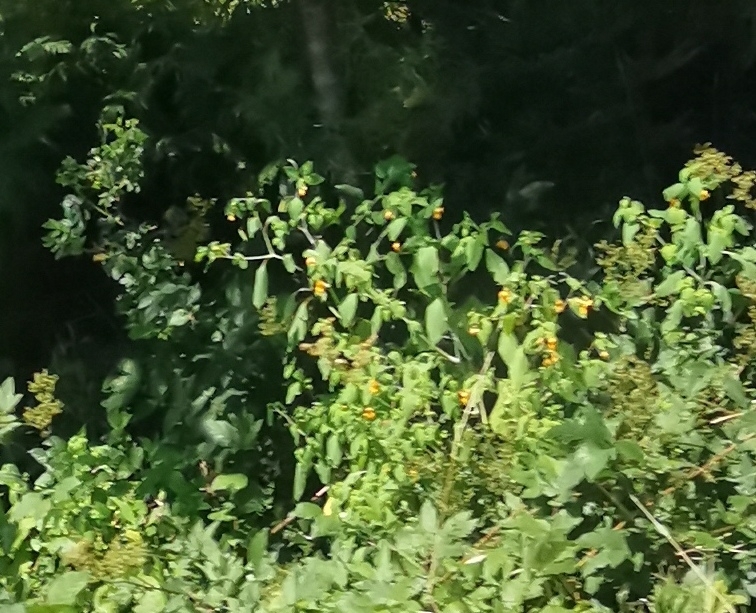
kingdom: Plantae
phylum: Tracheophyta
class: Magnoliopsida
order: Ericales
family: Balsaminaceae
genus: Impatiens
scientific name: Impatiens capensis
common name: Orange balsam
